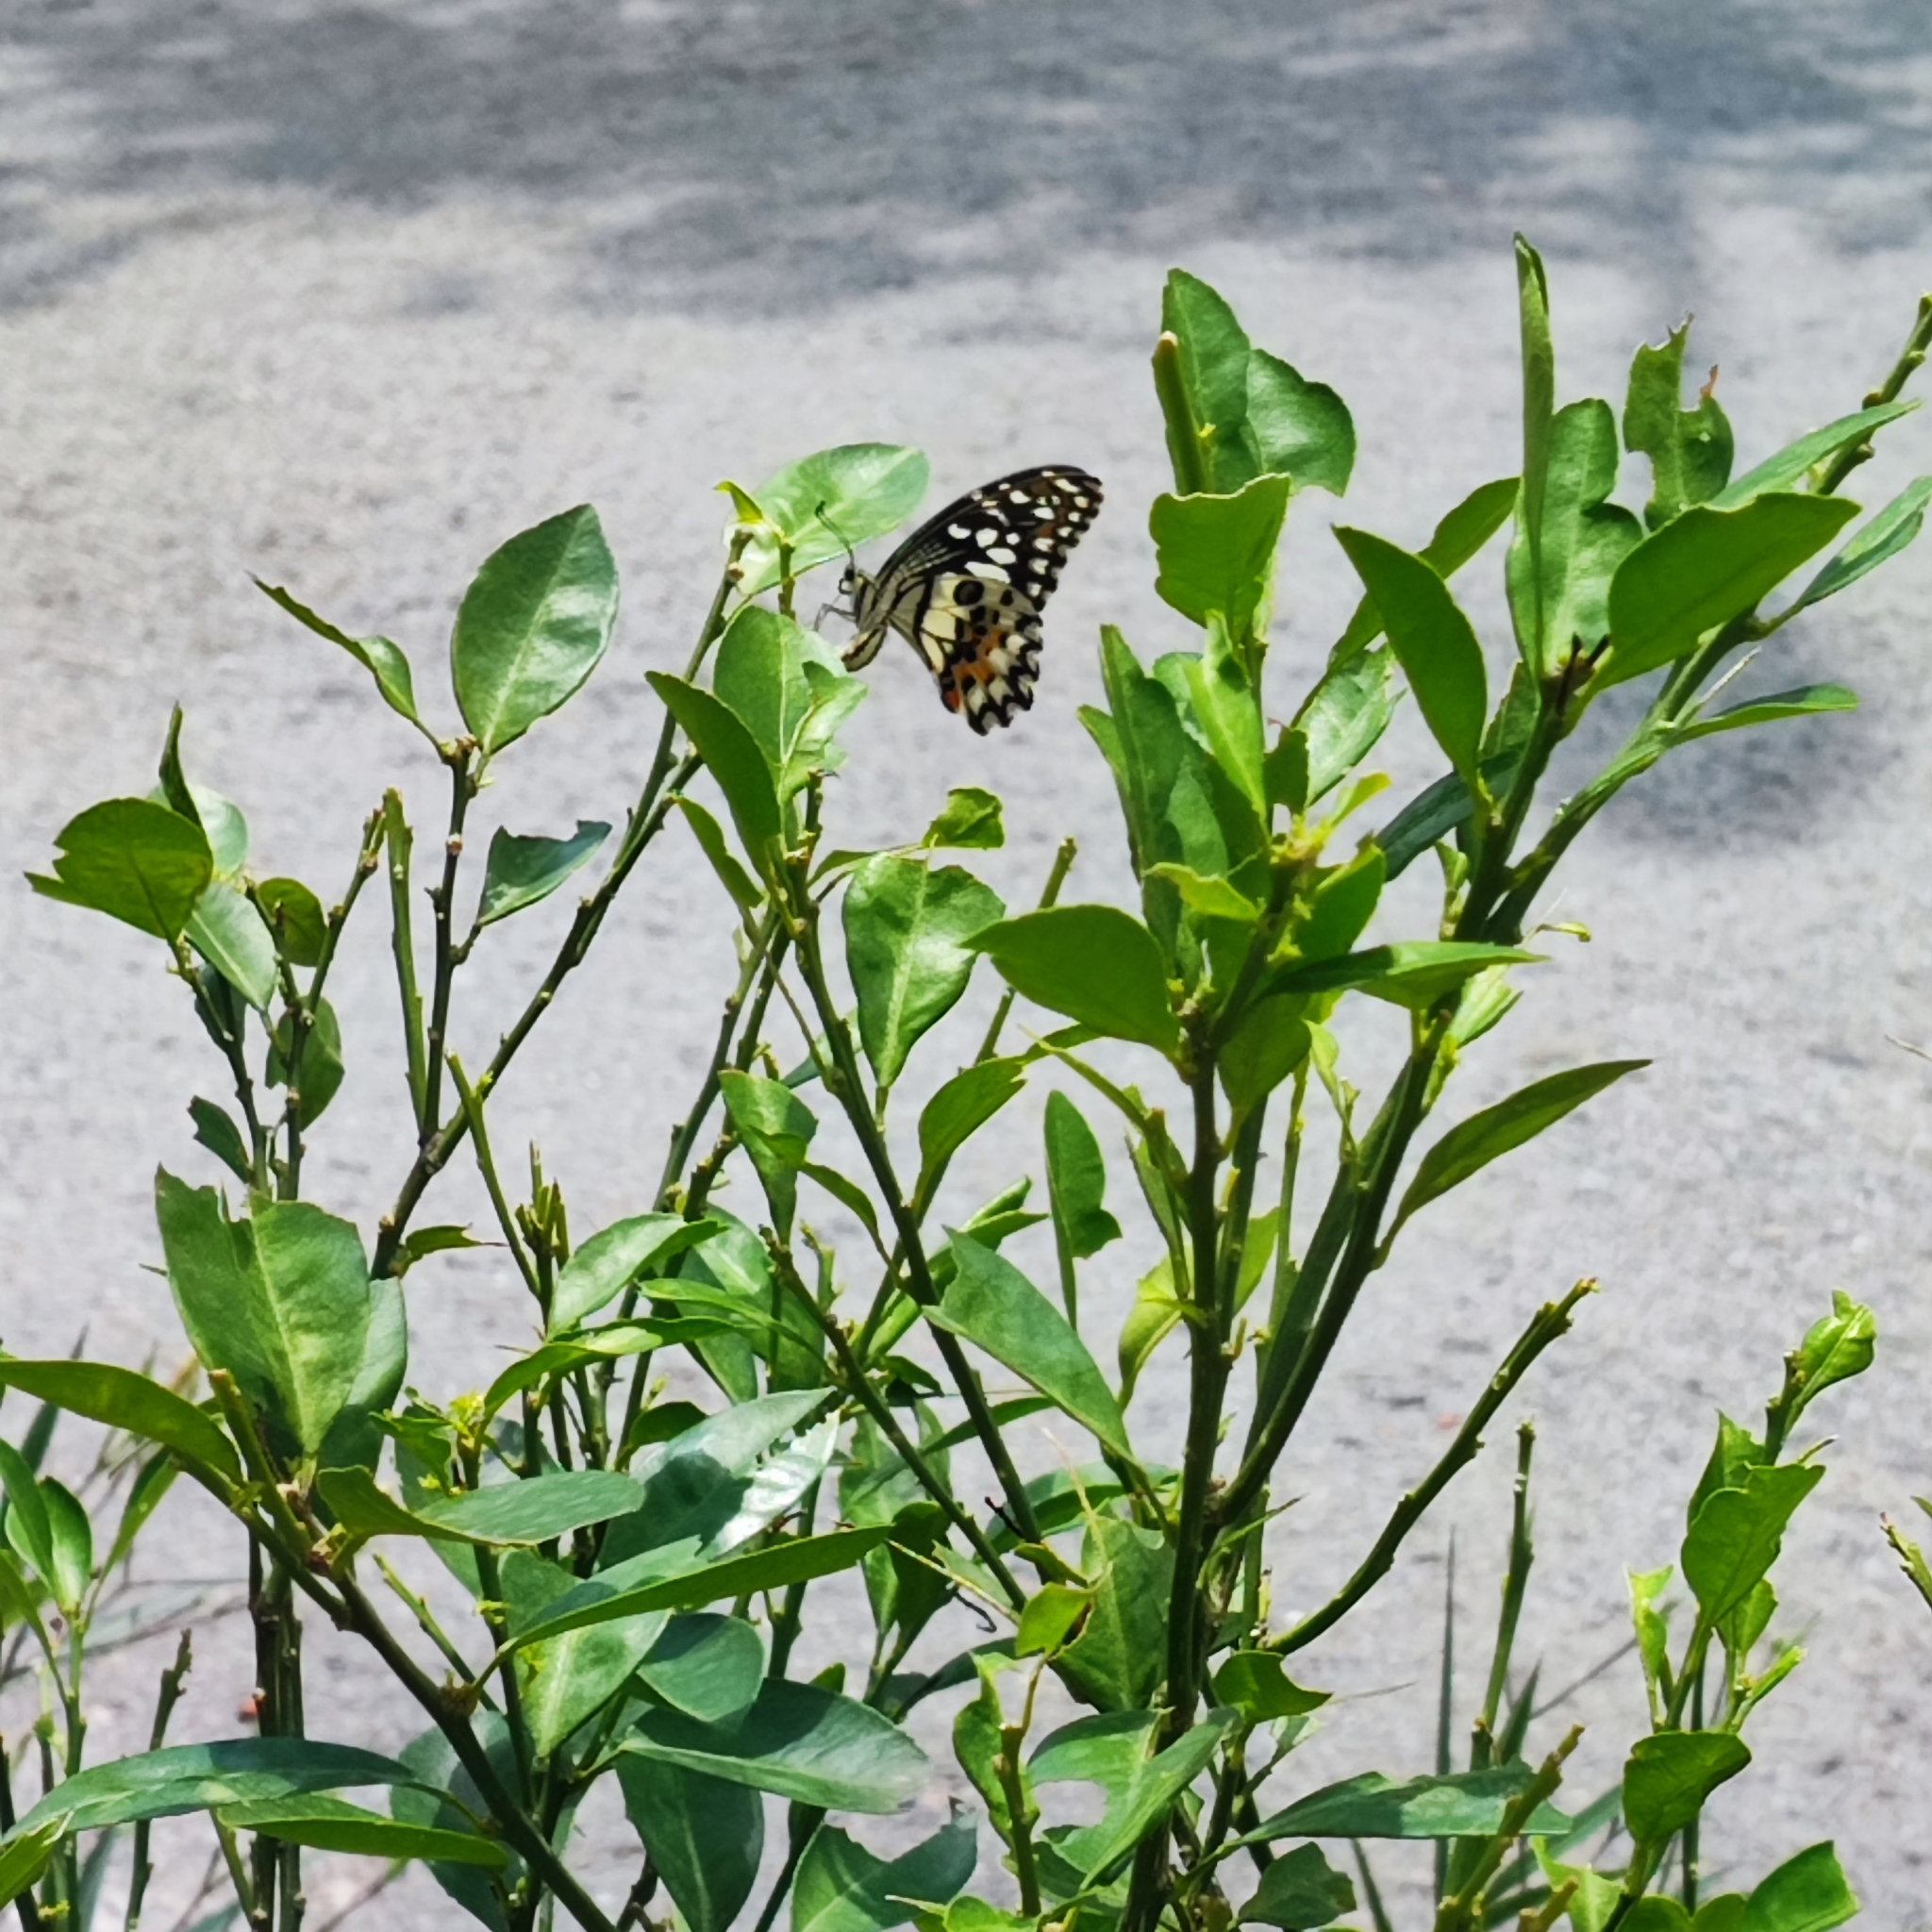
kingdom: Animalia
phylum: Arthropoda
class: Insecta
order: Lepidoptera
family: Papilionidae
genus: Papilio
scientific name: Papilio demoleus
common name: Lime butterfly
